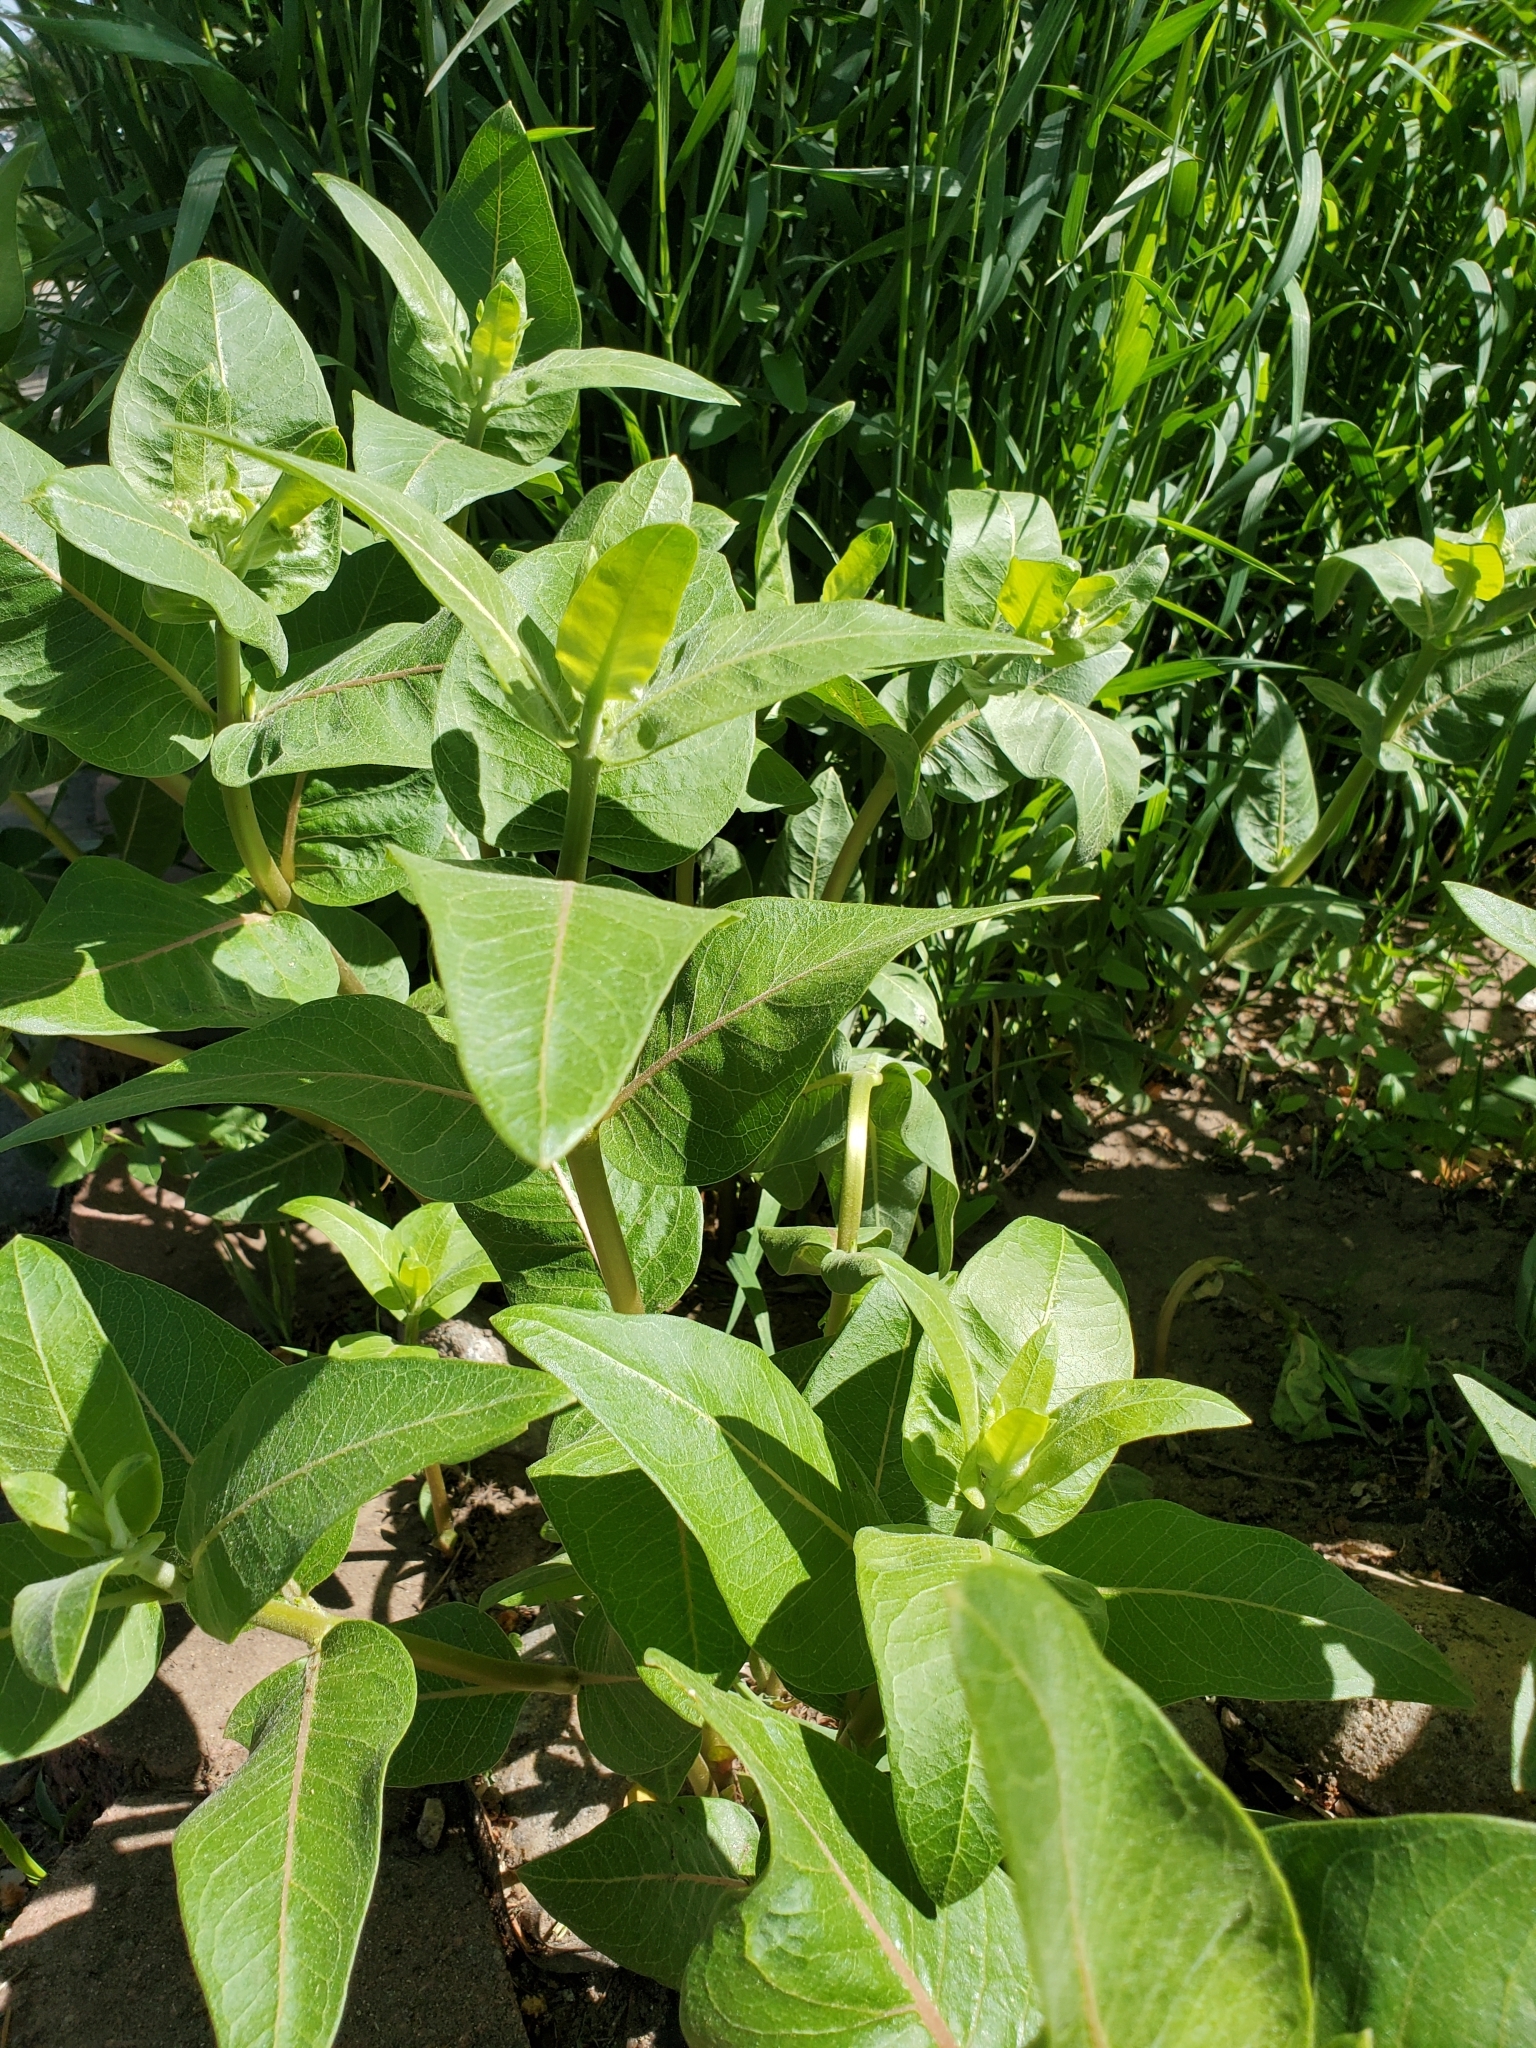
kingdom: Plantae
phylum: Tracheophyta
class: Magnoliopsida
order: Gentianales
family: Apocynaceae
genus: Asclepias
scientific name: Asclepias speciosa
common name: Showy milkweed
